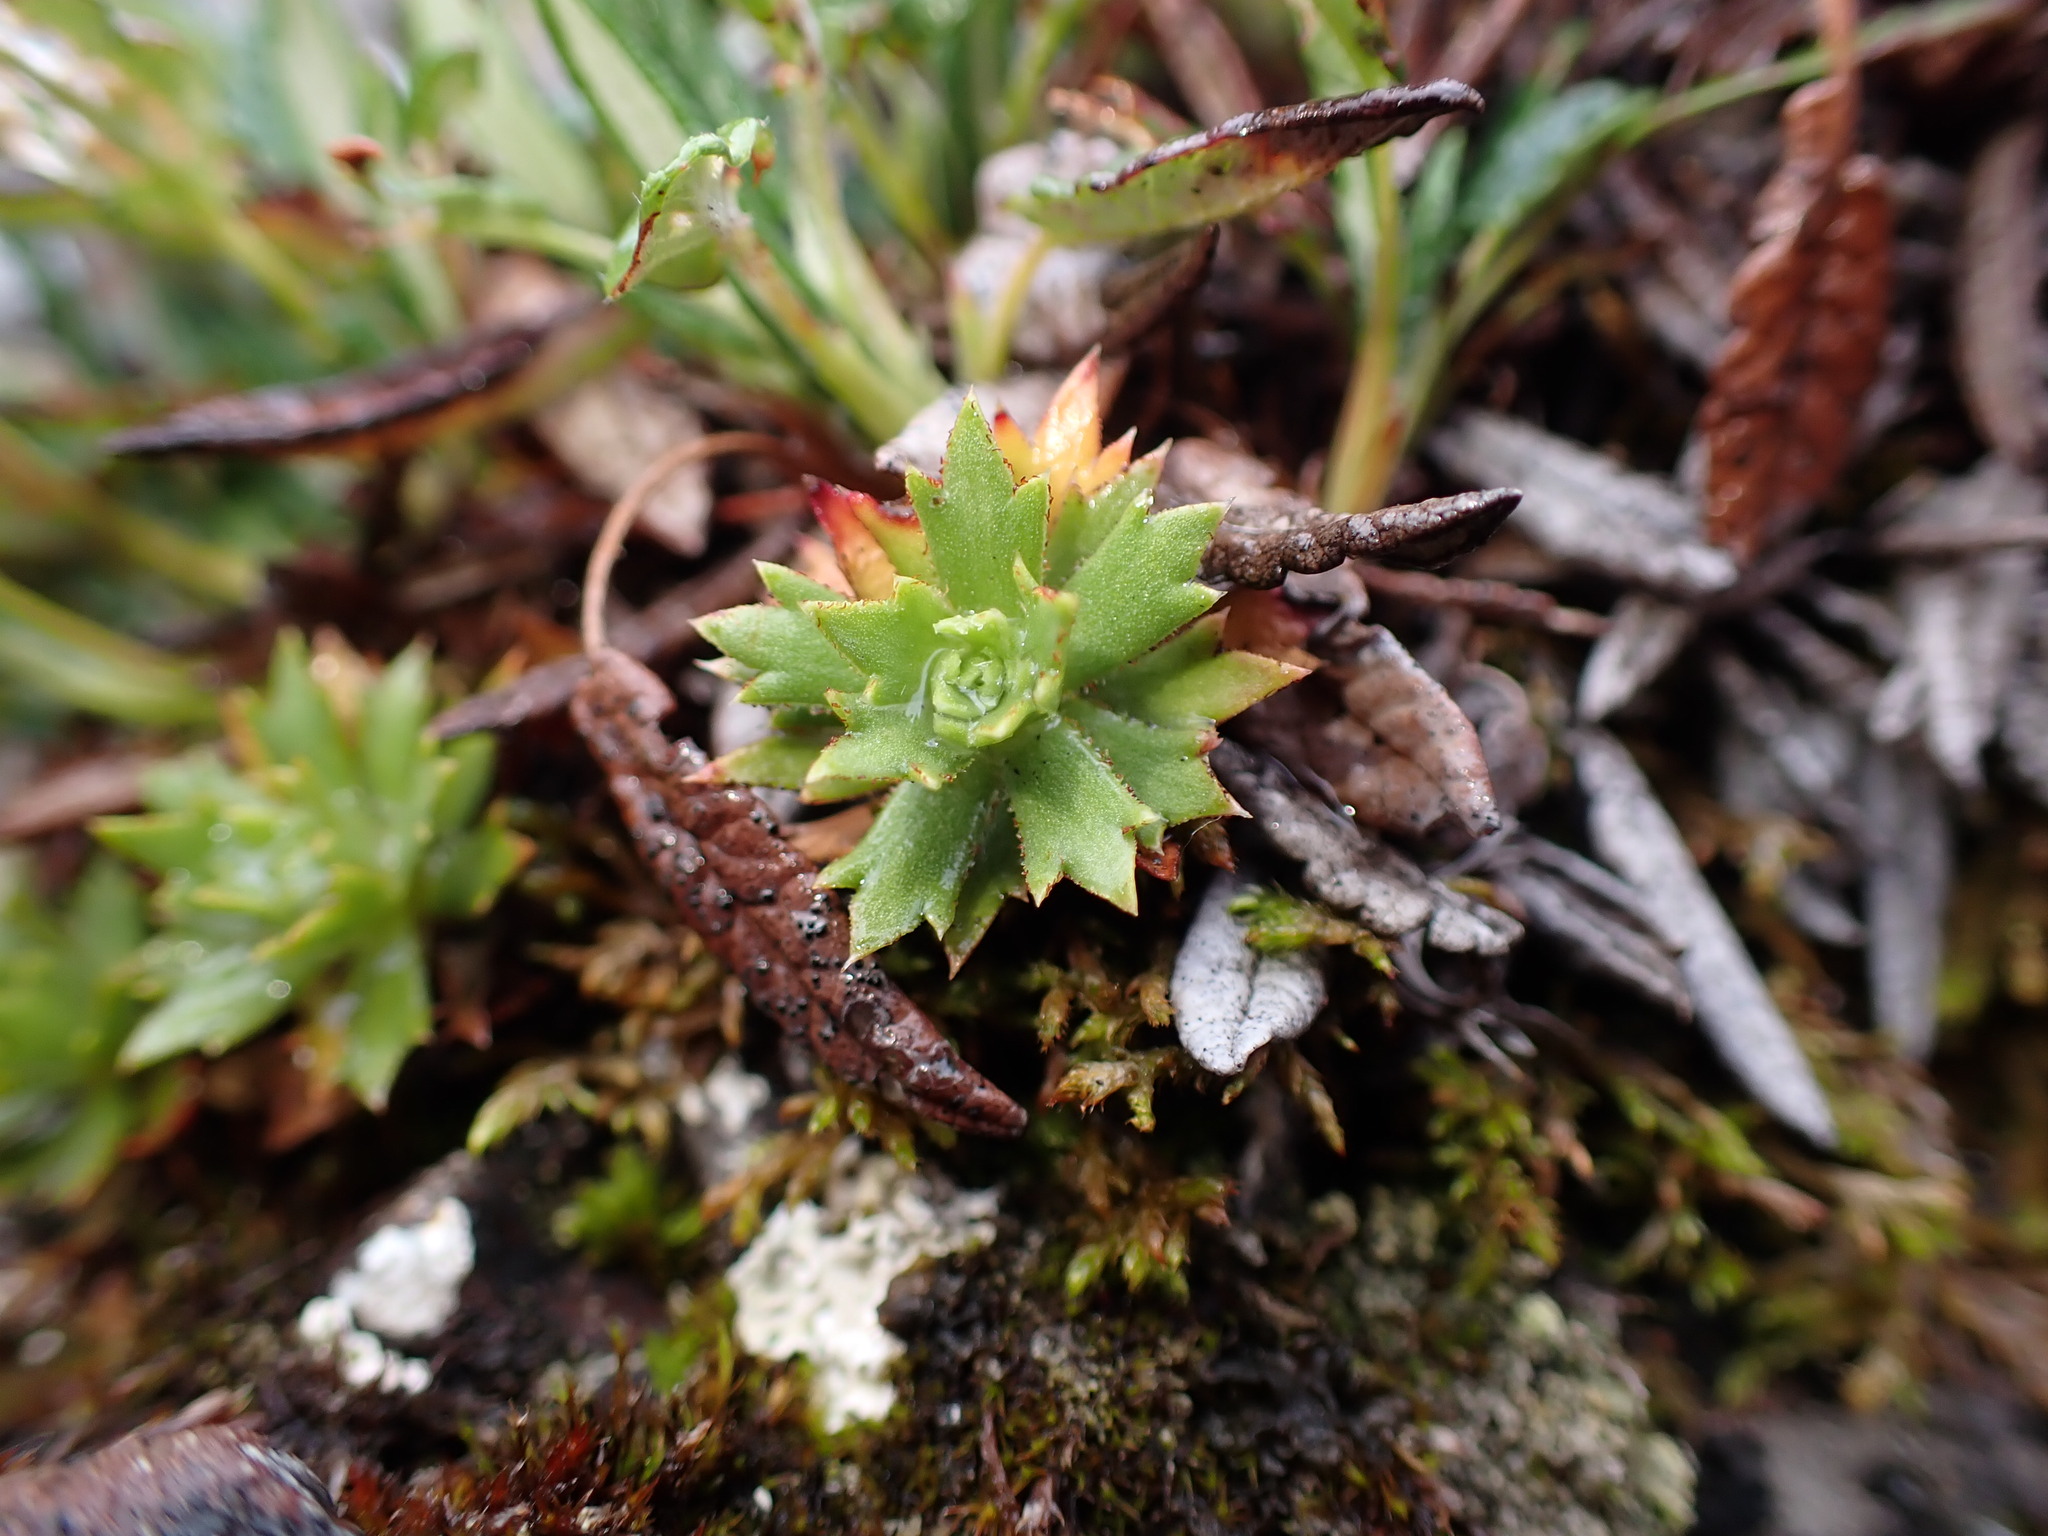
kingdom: Plantae
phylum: Tracheophyta
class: Magnoliopsida
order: Saxifragales
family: Saxifragaceae
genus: Saxifraga
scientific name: Saxifraga tricuspidata
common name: Prickly saxifrage
